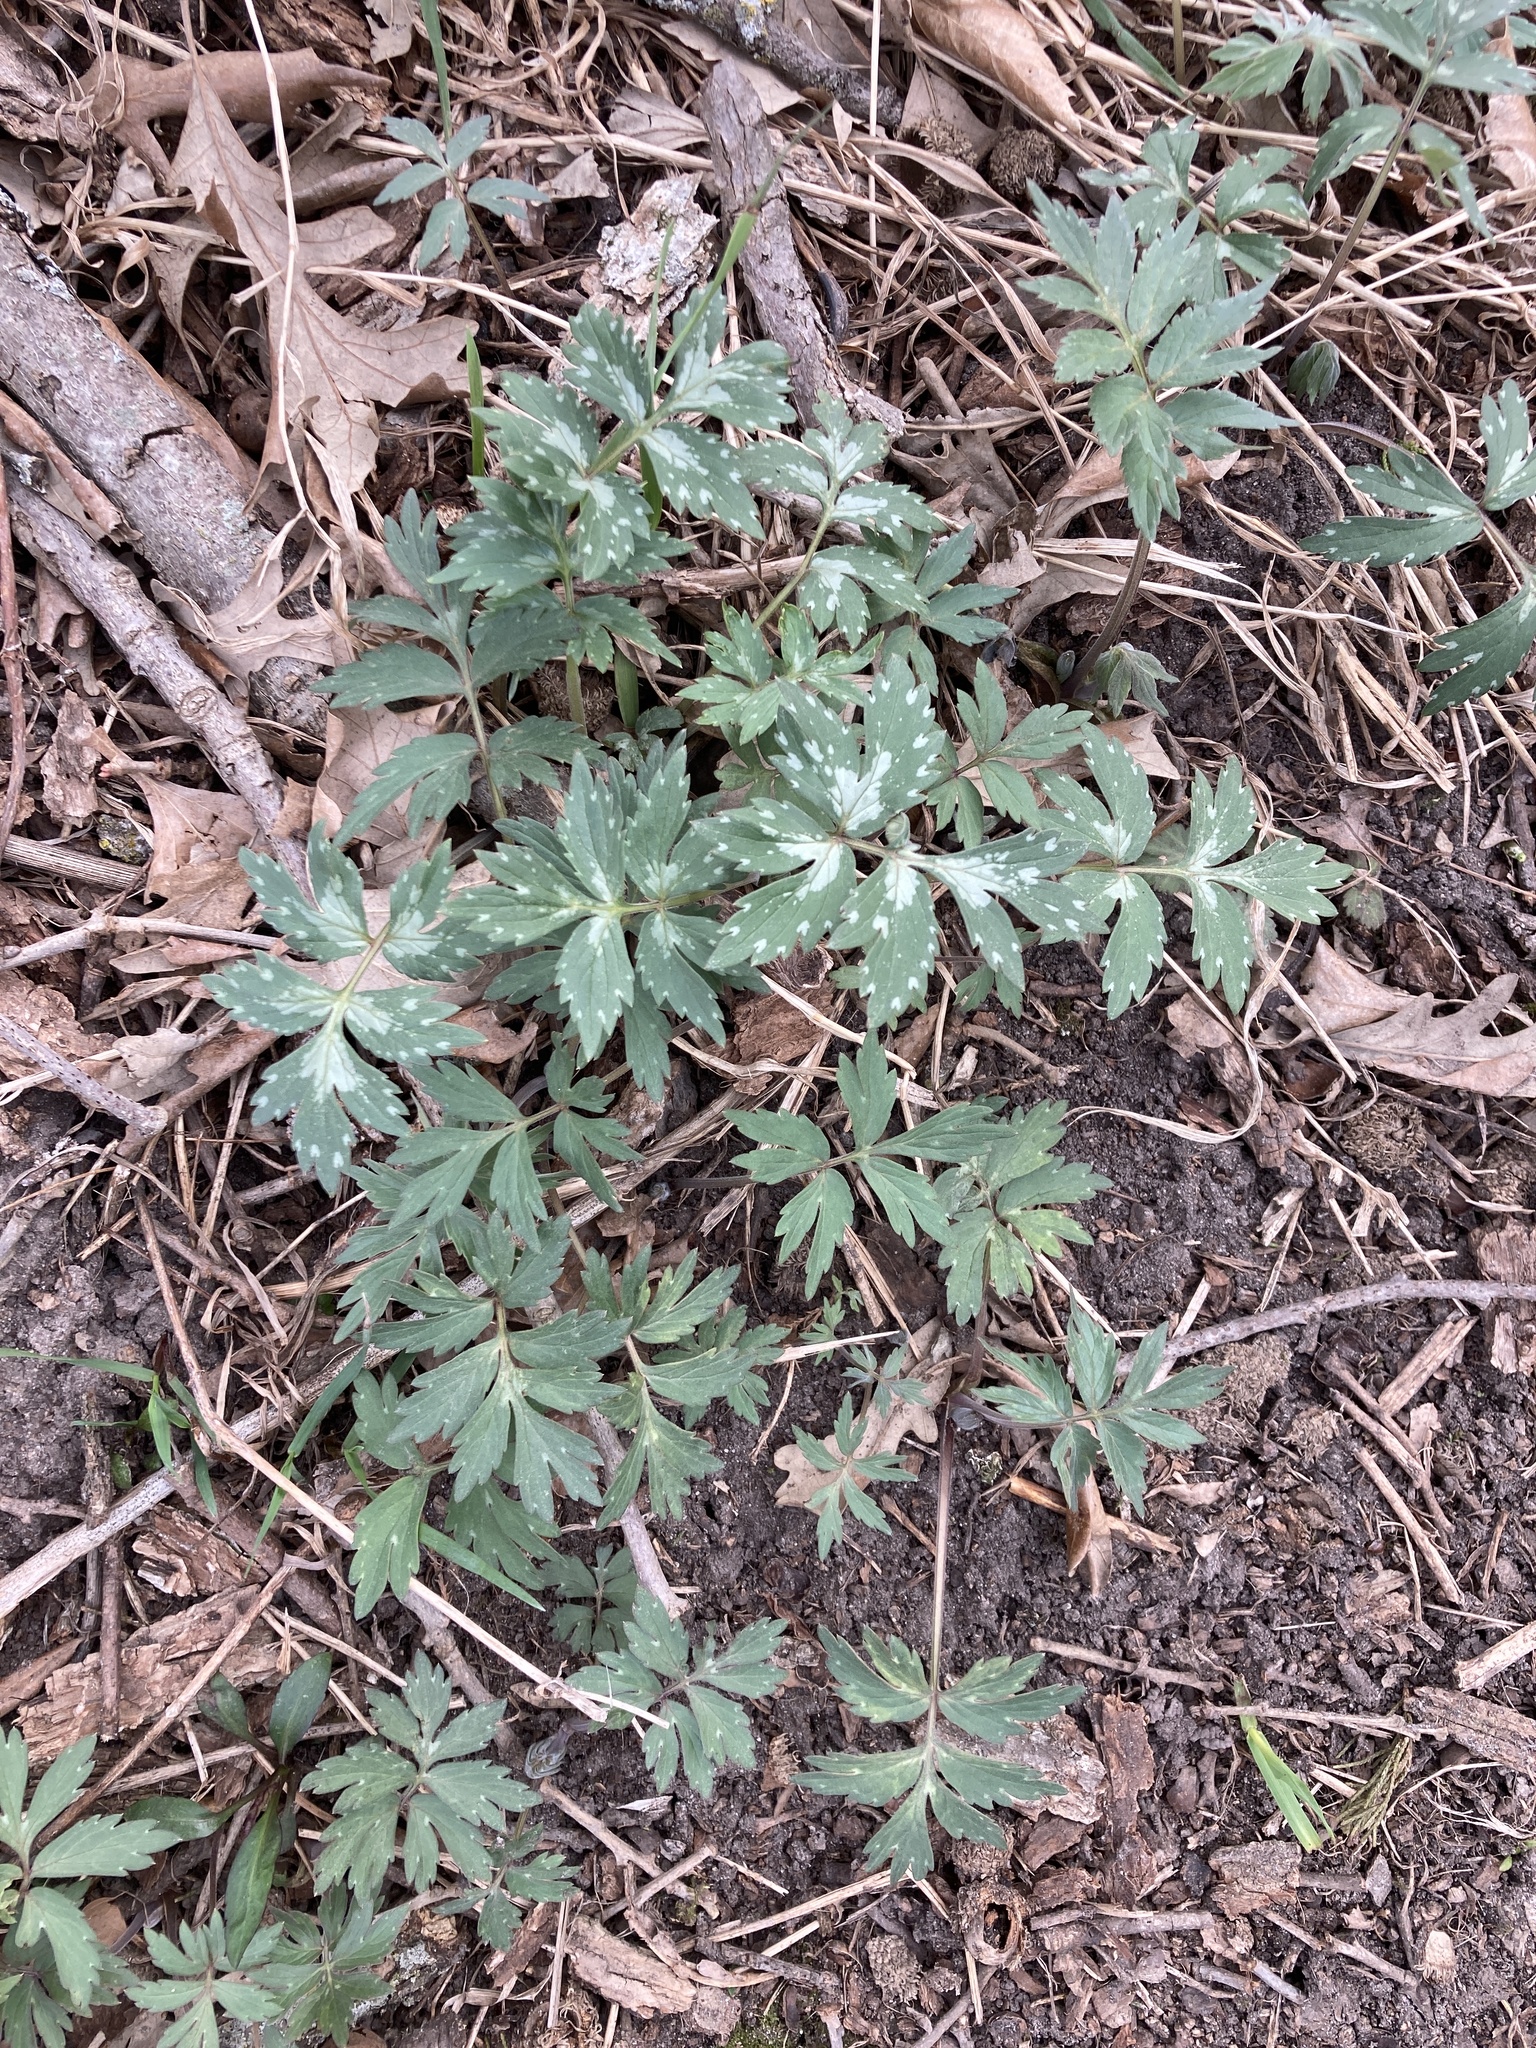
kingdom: Plantae
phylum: Tracheophyta
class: Magnoliopsida
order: Boraginales
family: Hydrophyllaceae
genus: Hydrophyllum
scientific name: Hydrophyllum virginianum
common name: Virginia waterleaf
